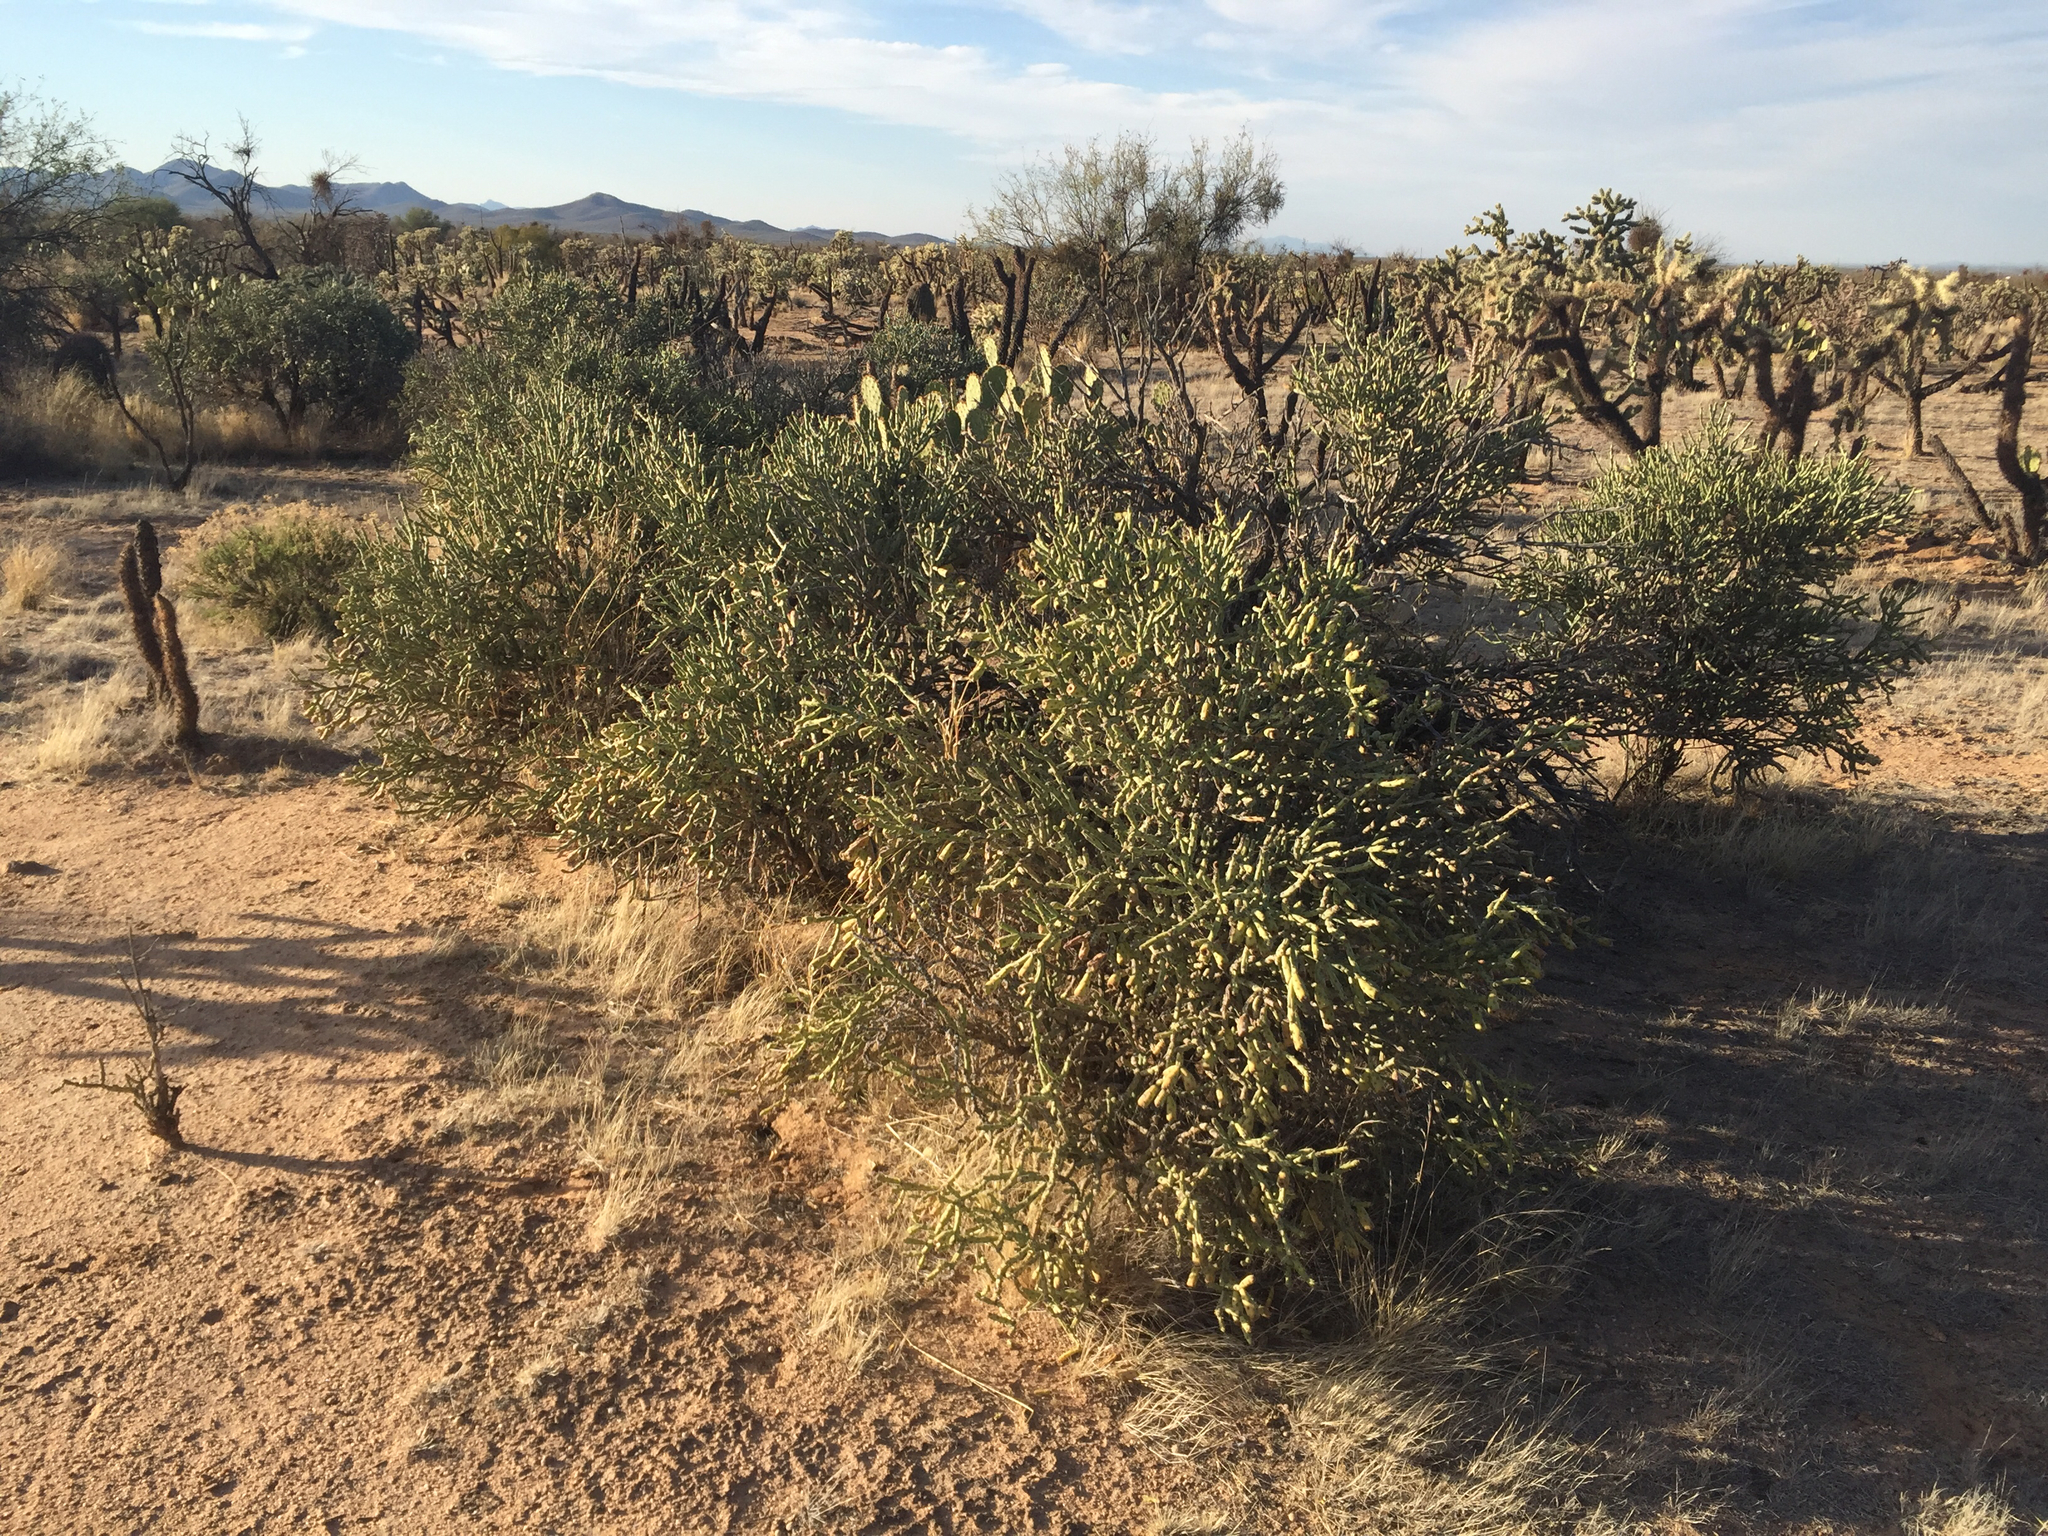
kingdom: Plantae
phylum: Tracheophyta
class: Magnoliopsida
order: Caryophyllales
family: Cactaceae
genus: Cylindropuntia
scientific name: Cylindropuntia arbuscula
